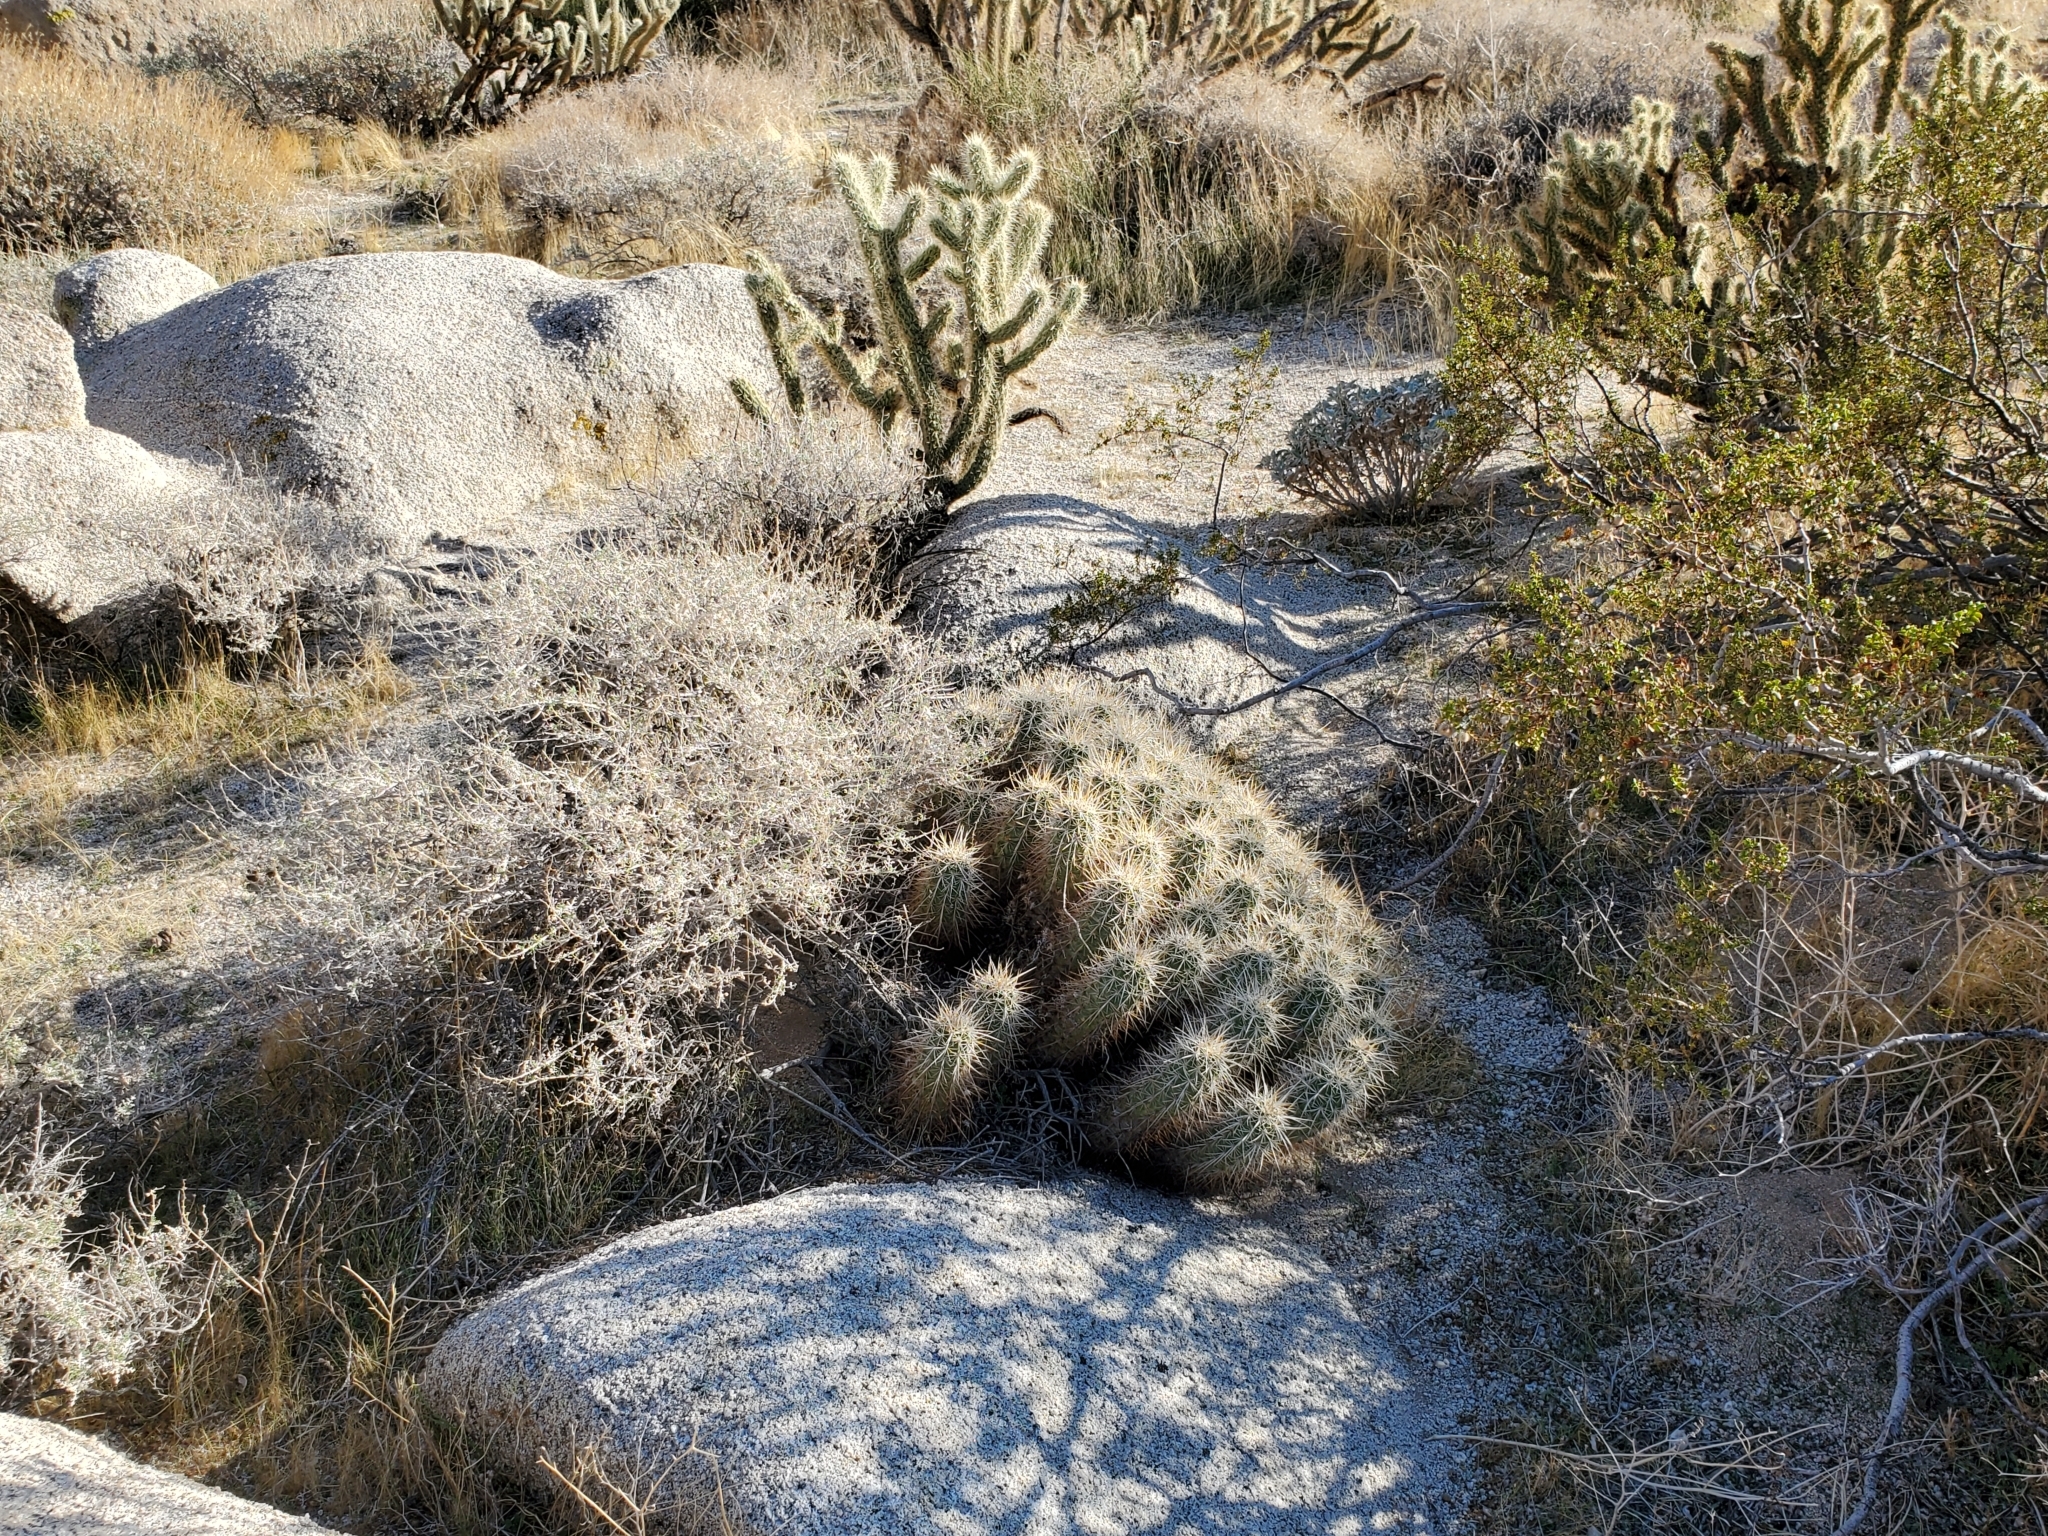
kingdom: Plantae
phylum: Tracheophyta
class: Magnoliopsida
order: Caryophyllales
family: Cactaceae
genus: Echinocereus
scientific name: Echinocereus engelmannii
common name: Engelmann's hedgehog cactus
